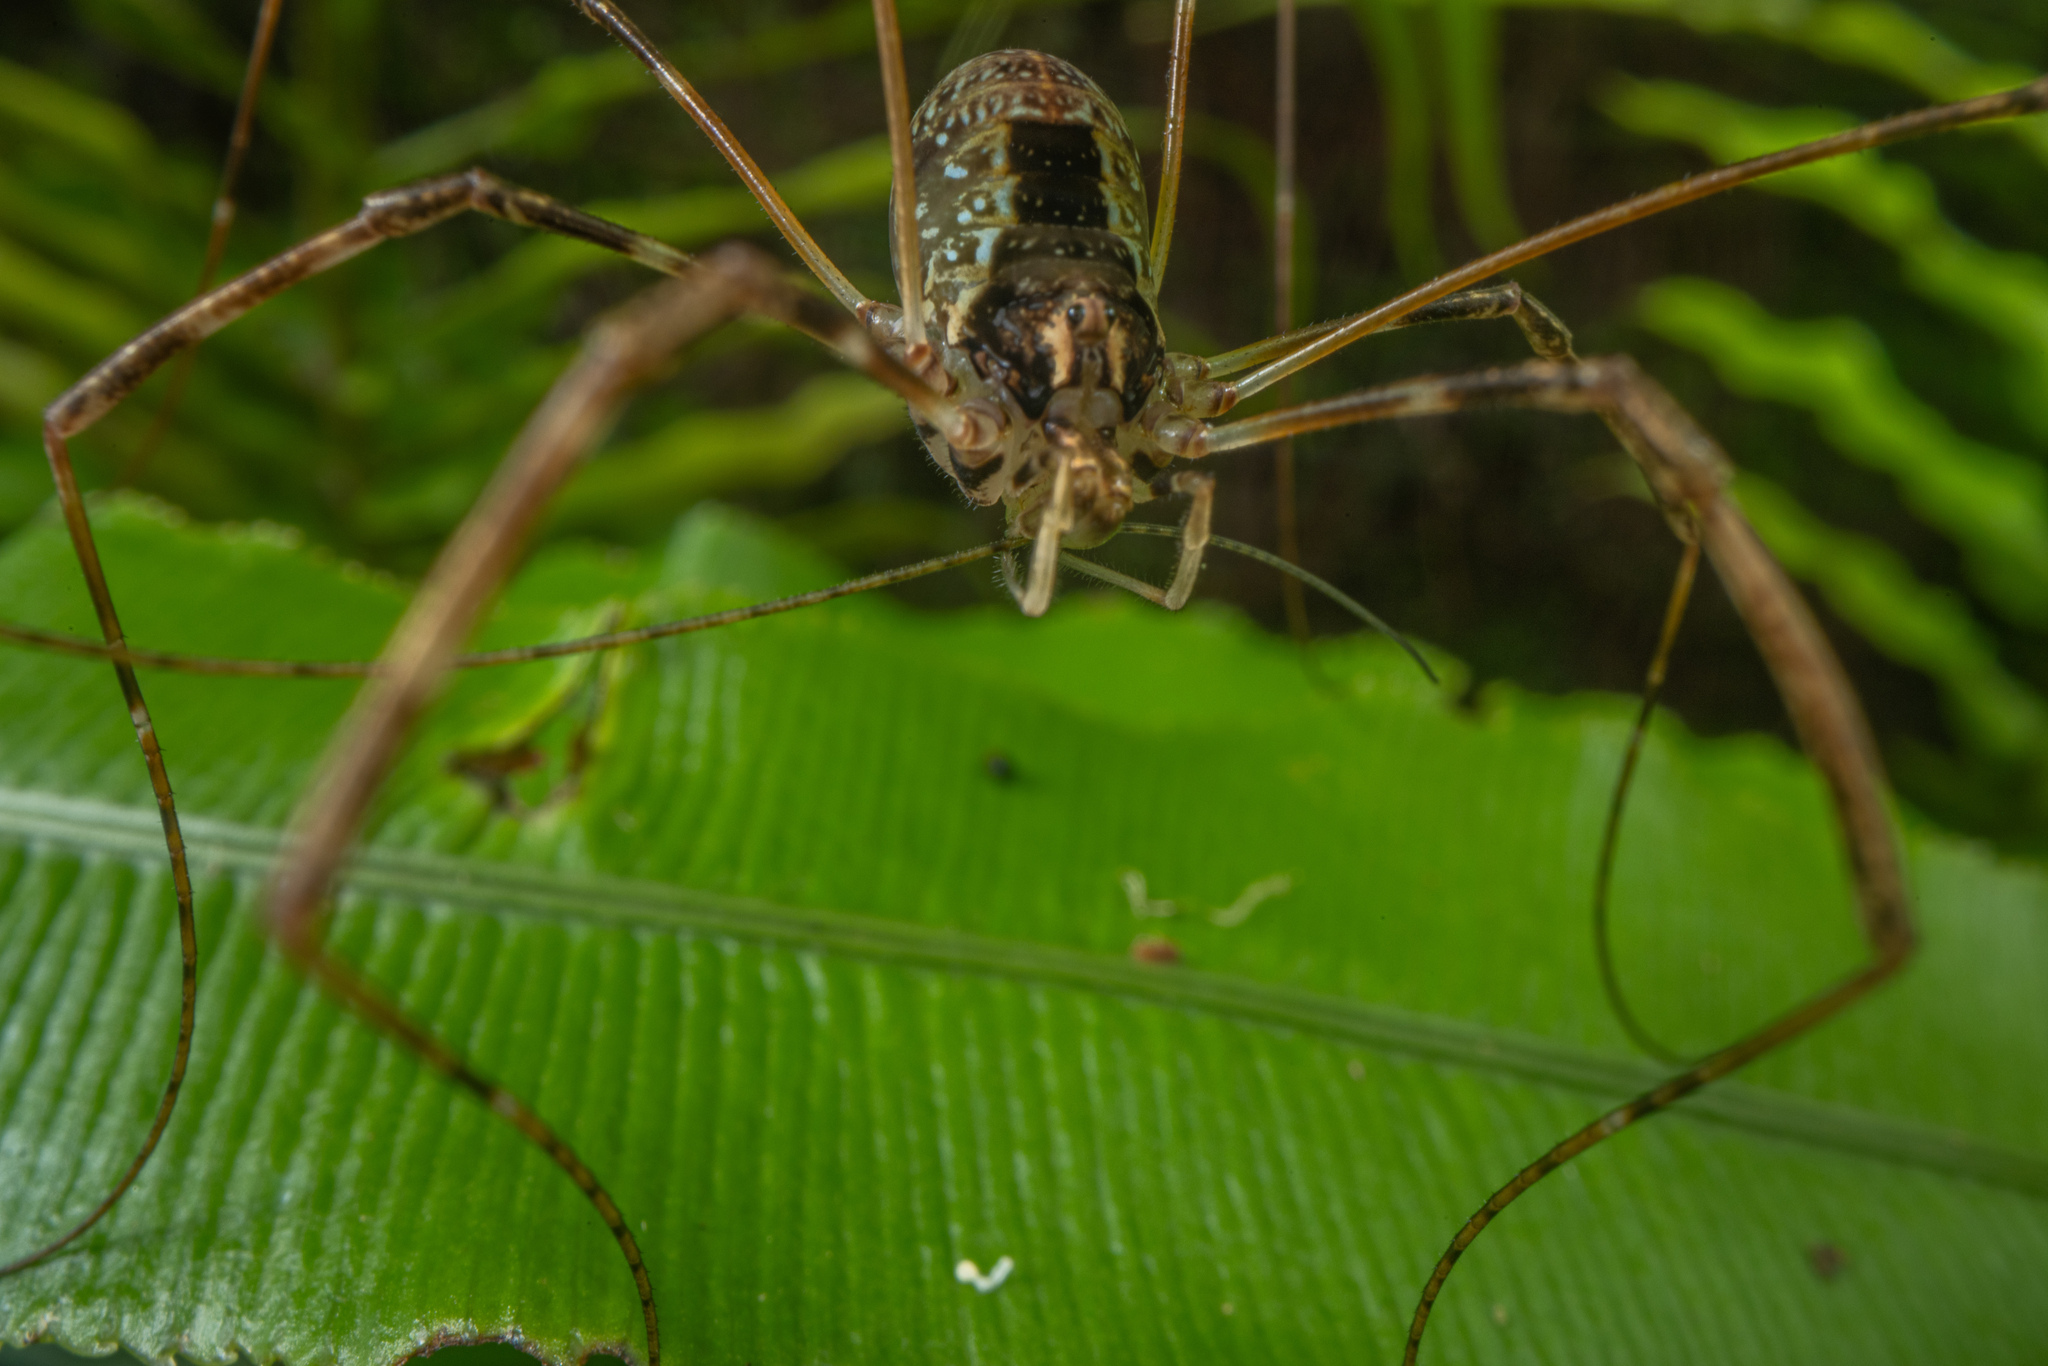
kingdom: Animalia
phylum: Arthropoda
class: Arachnida
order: Opiliones
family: Neopilionidae
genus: Forsteropsalis
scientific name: Forsteropsalis pureora
